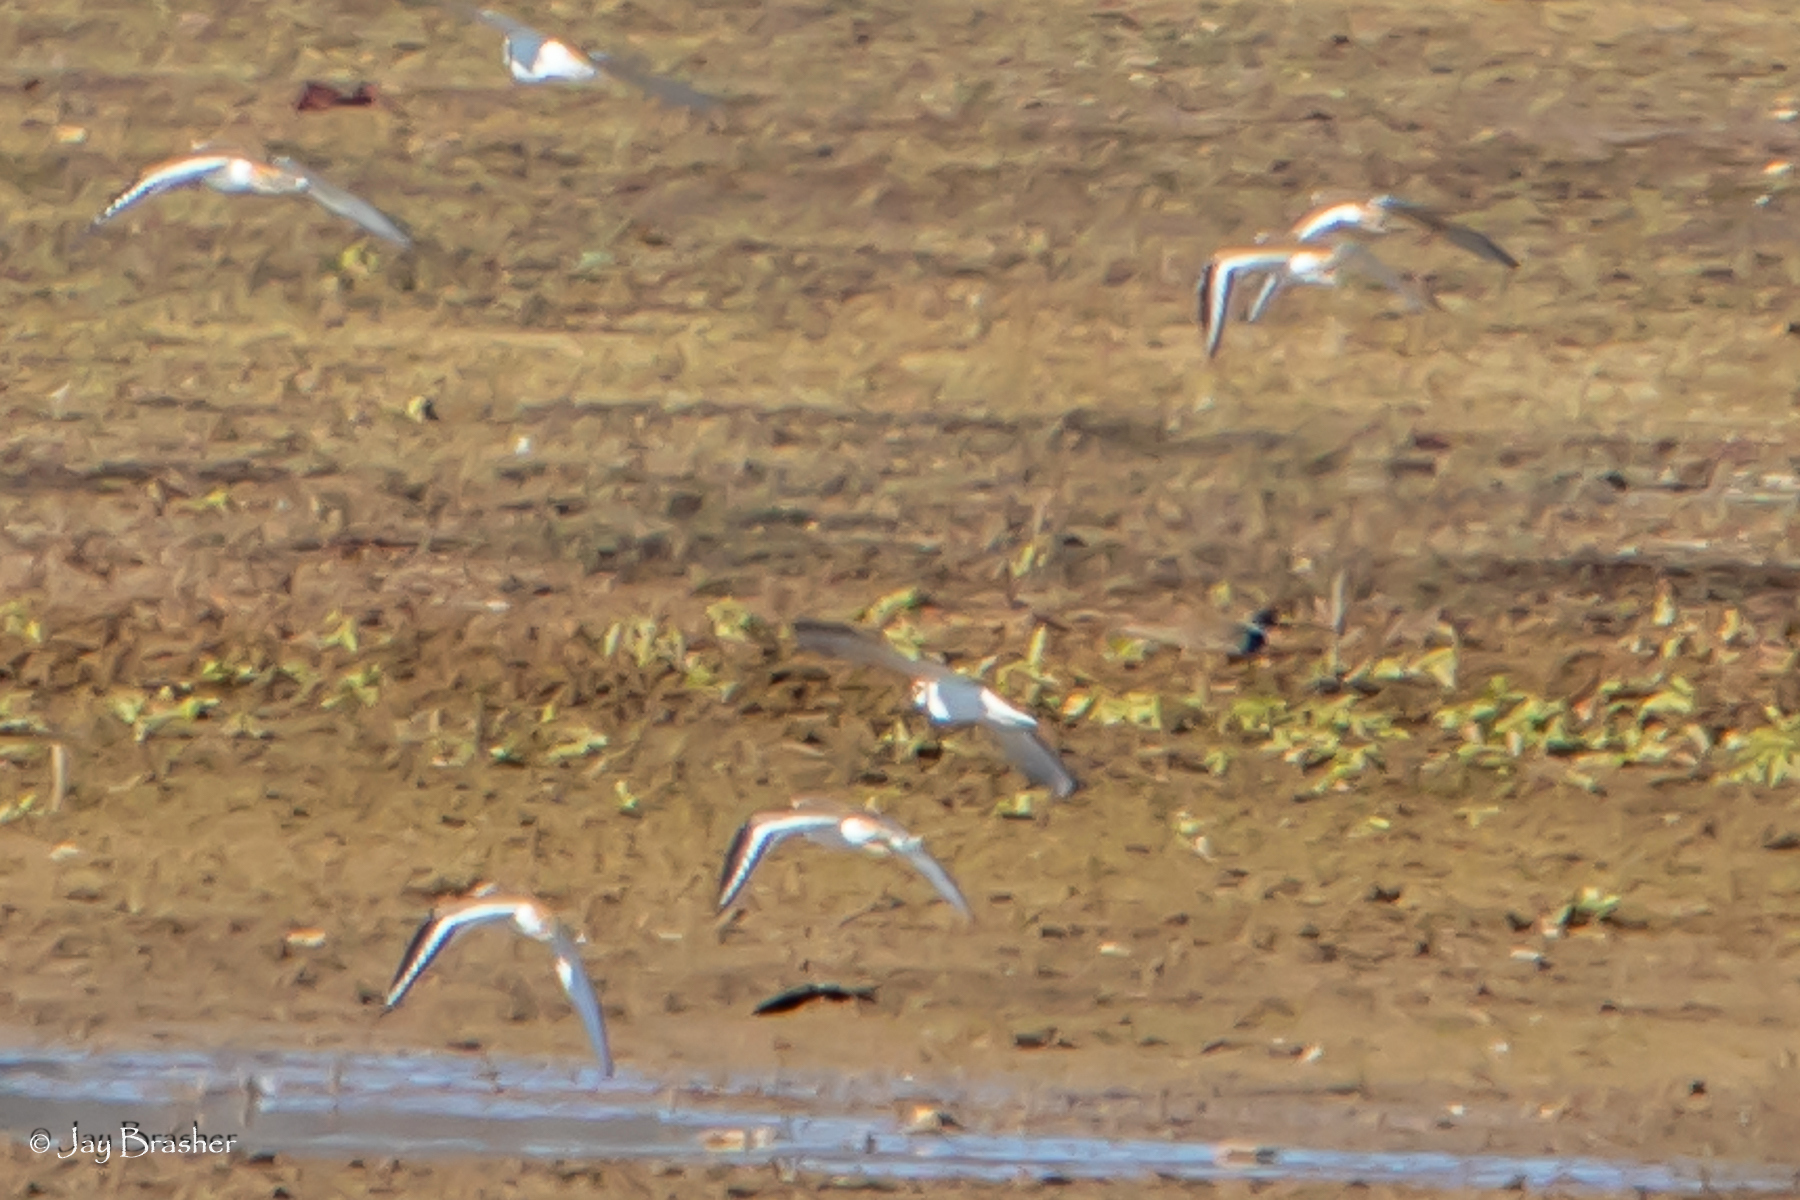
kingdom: Animalia
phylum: Chordata
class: Aves
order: Charadriiformes
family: Charadriidae
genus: Charadrius
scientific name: Charadrius vociferus
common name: Killdeer
